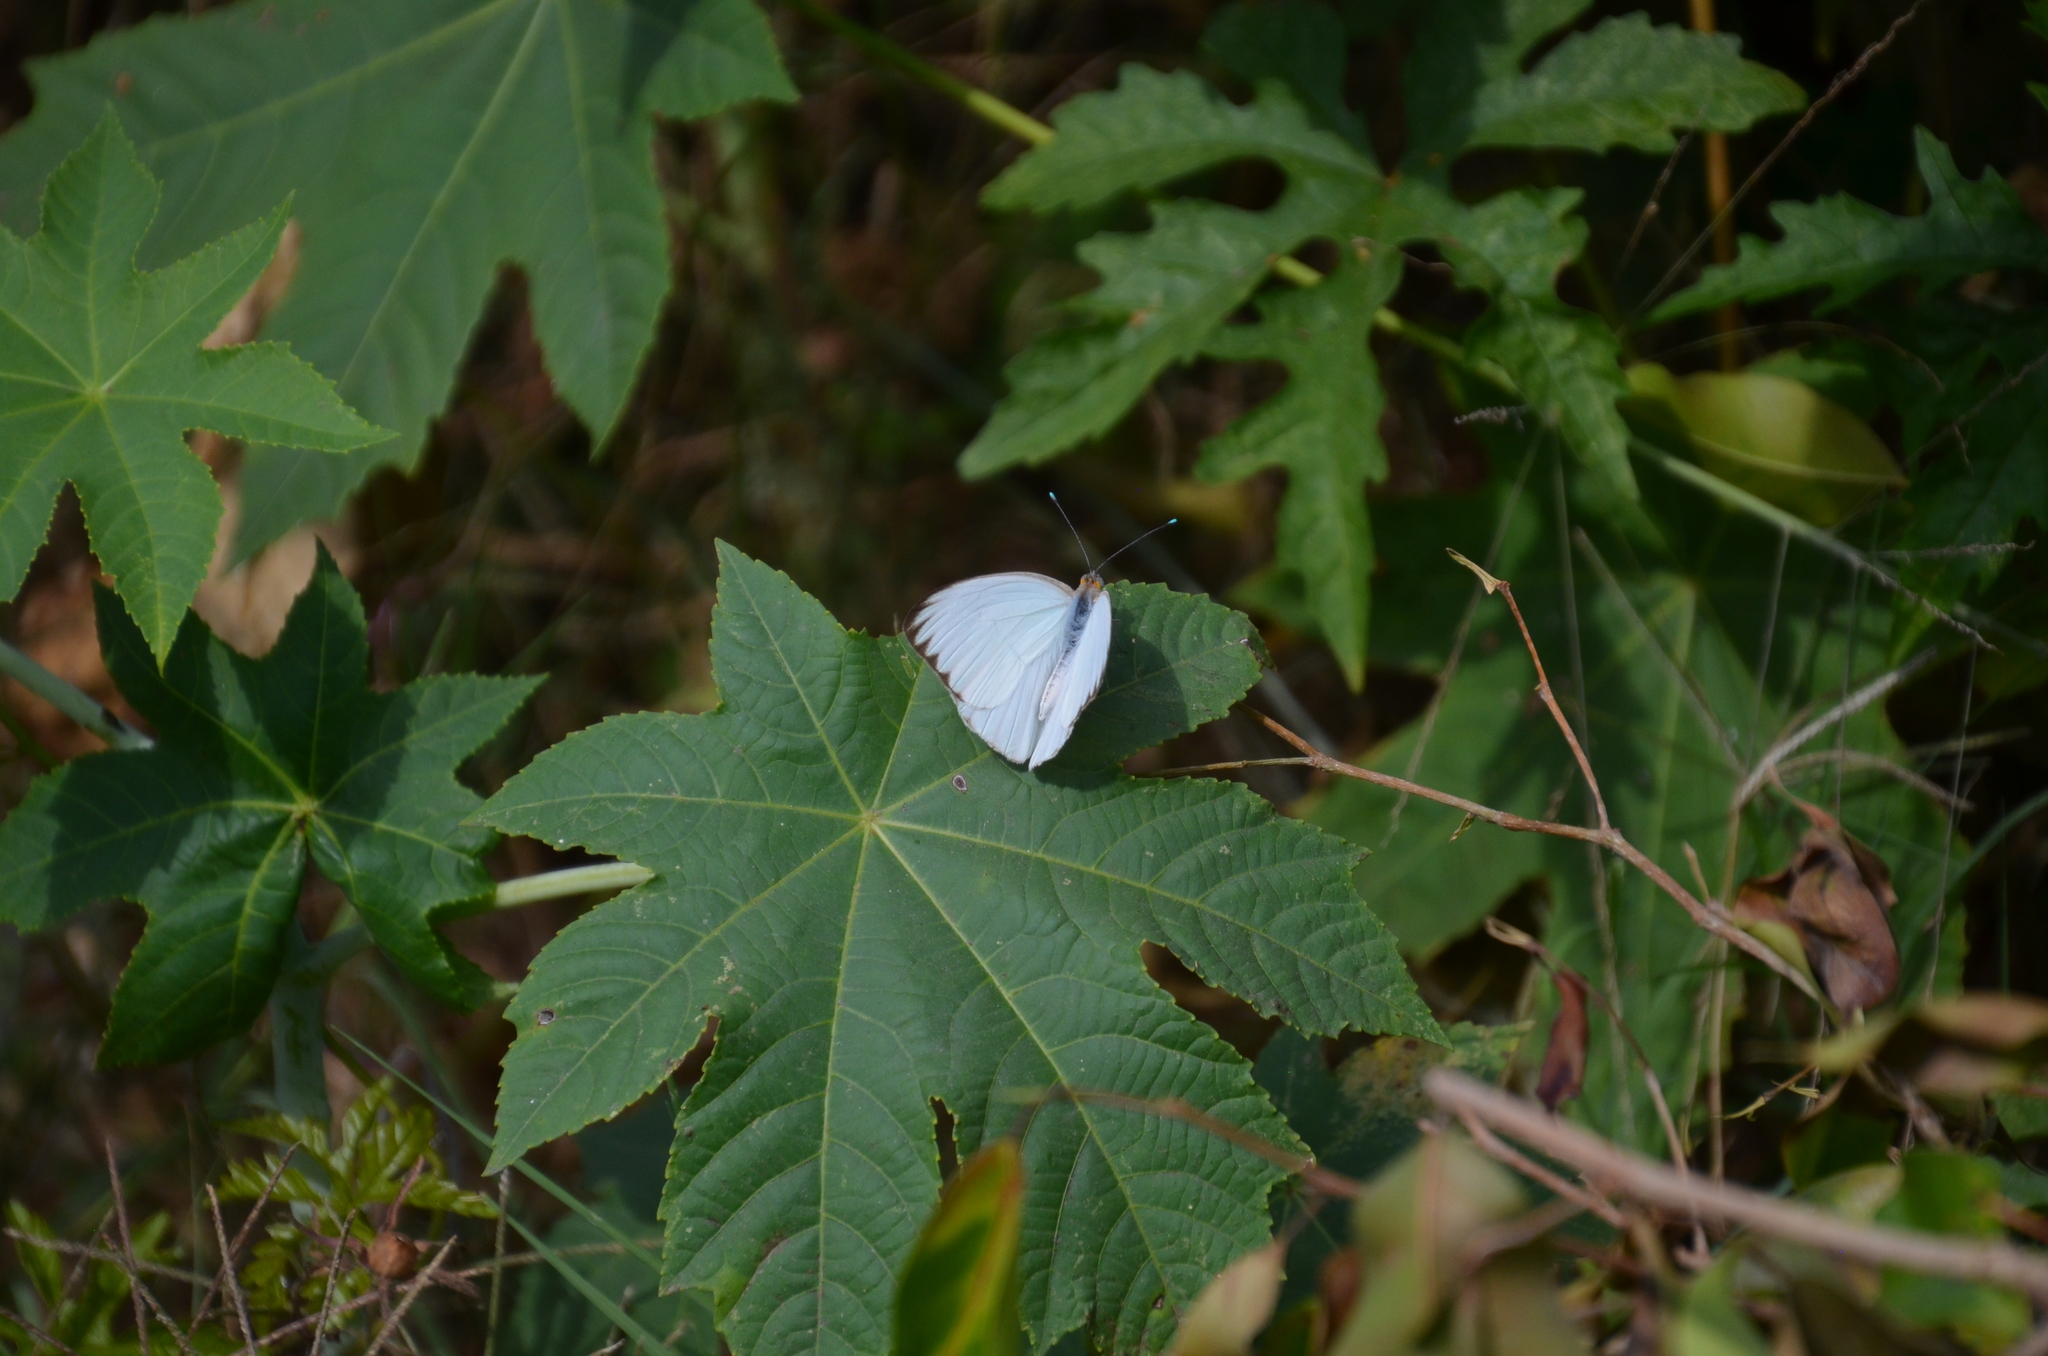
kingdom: Animalia
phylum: Arthropoda
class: Insecta
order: Lepidoptera
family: Pieridae
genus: Ascia
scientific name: Ascia monuste
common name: Great southern white
